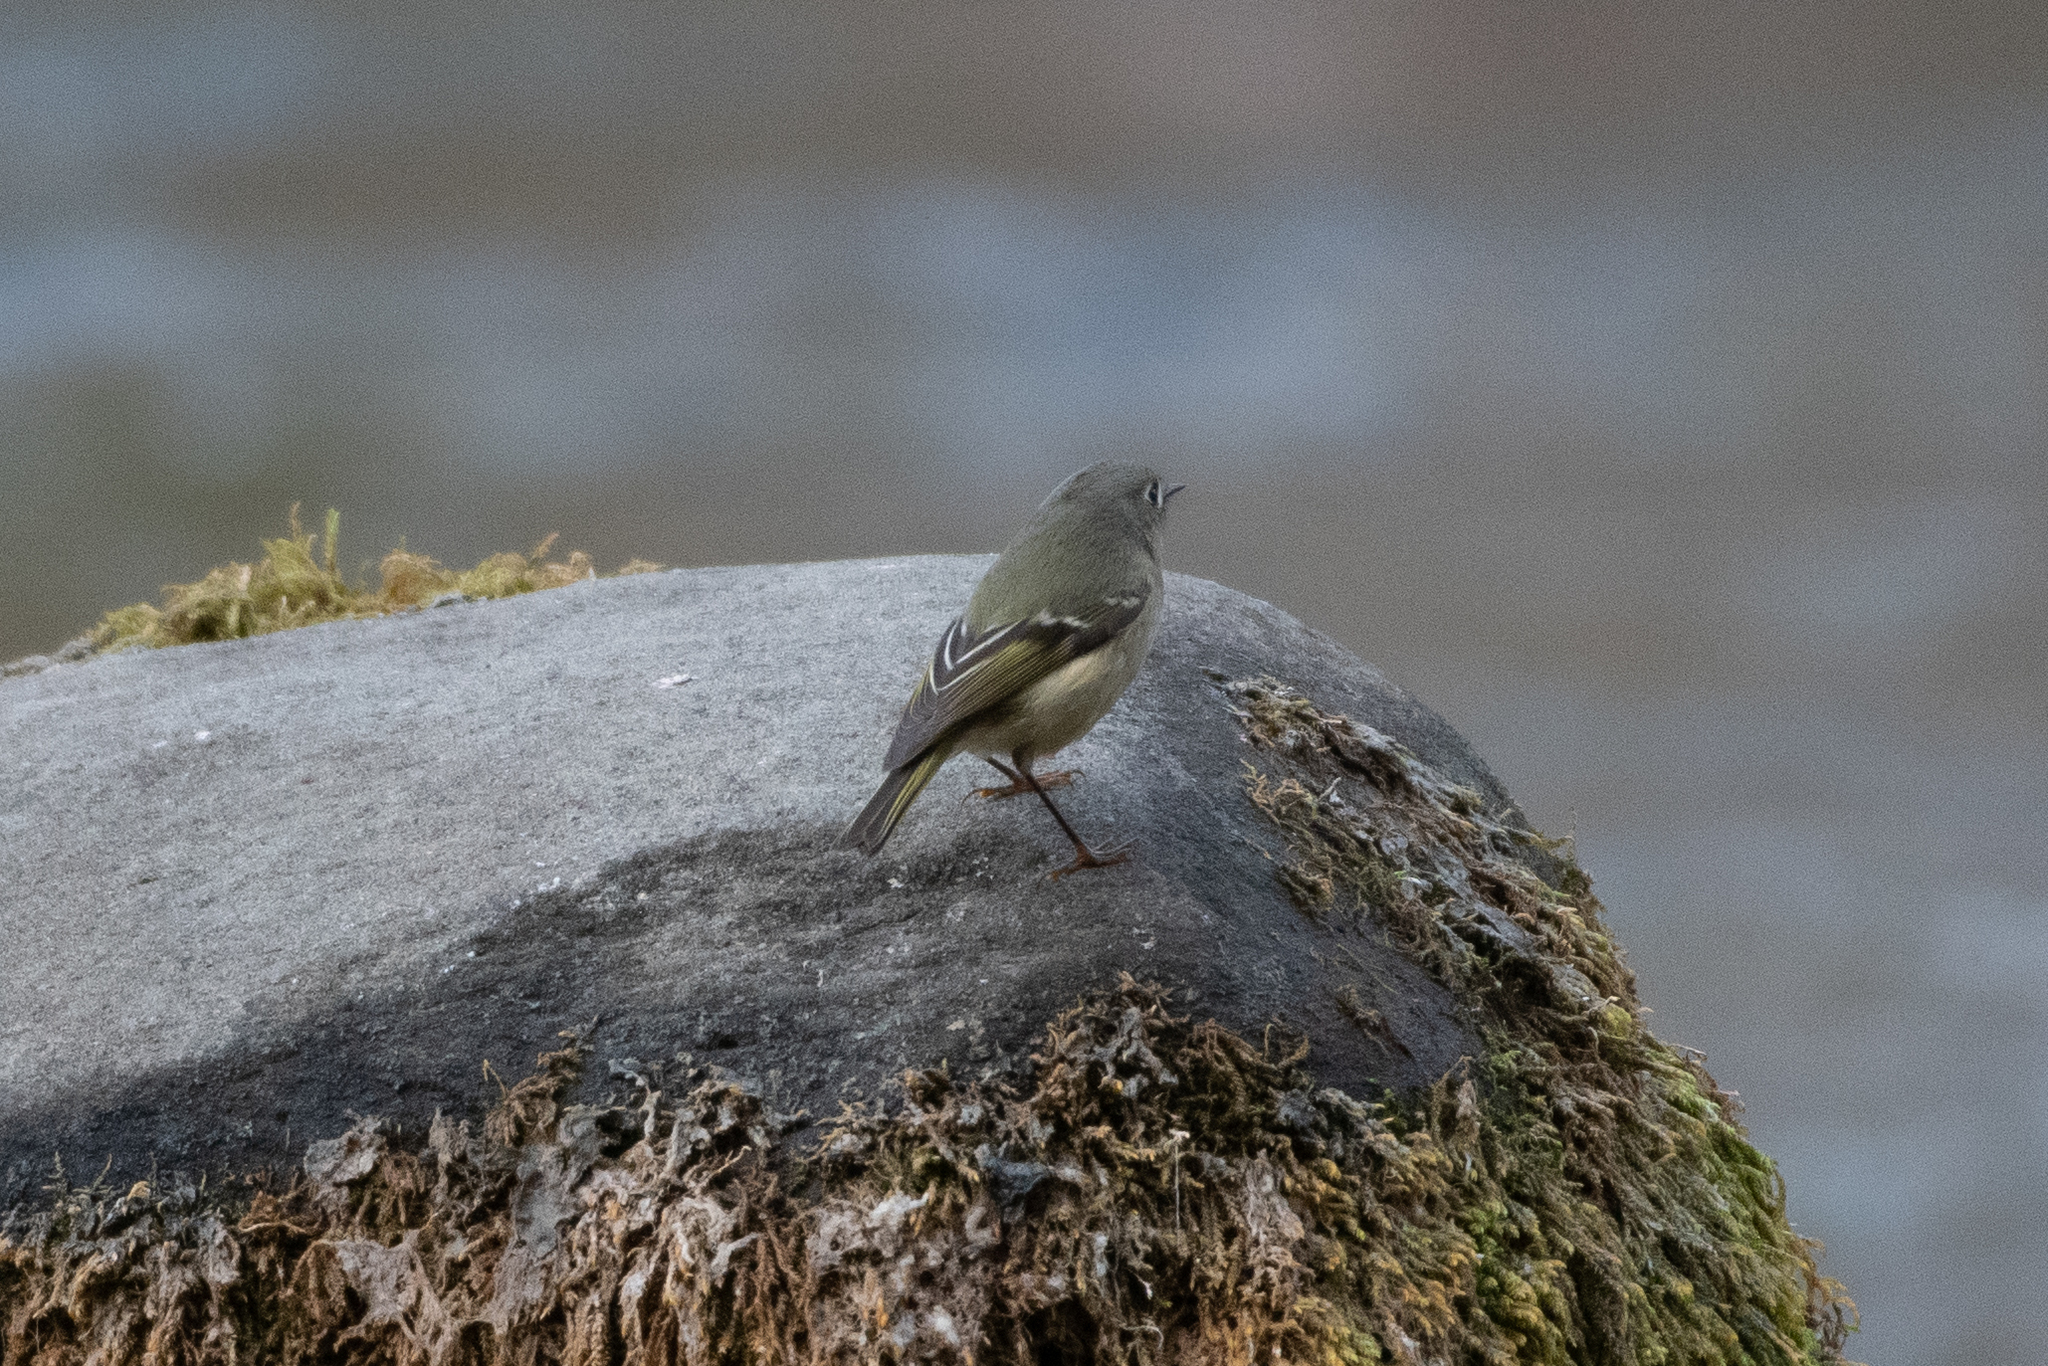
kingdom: Animalia
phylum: Chordata
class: Aves
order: Passeriformes
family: Regulidae
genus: Regulus
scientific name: Regulus calendula
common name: Ruby-crowned kinglet
